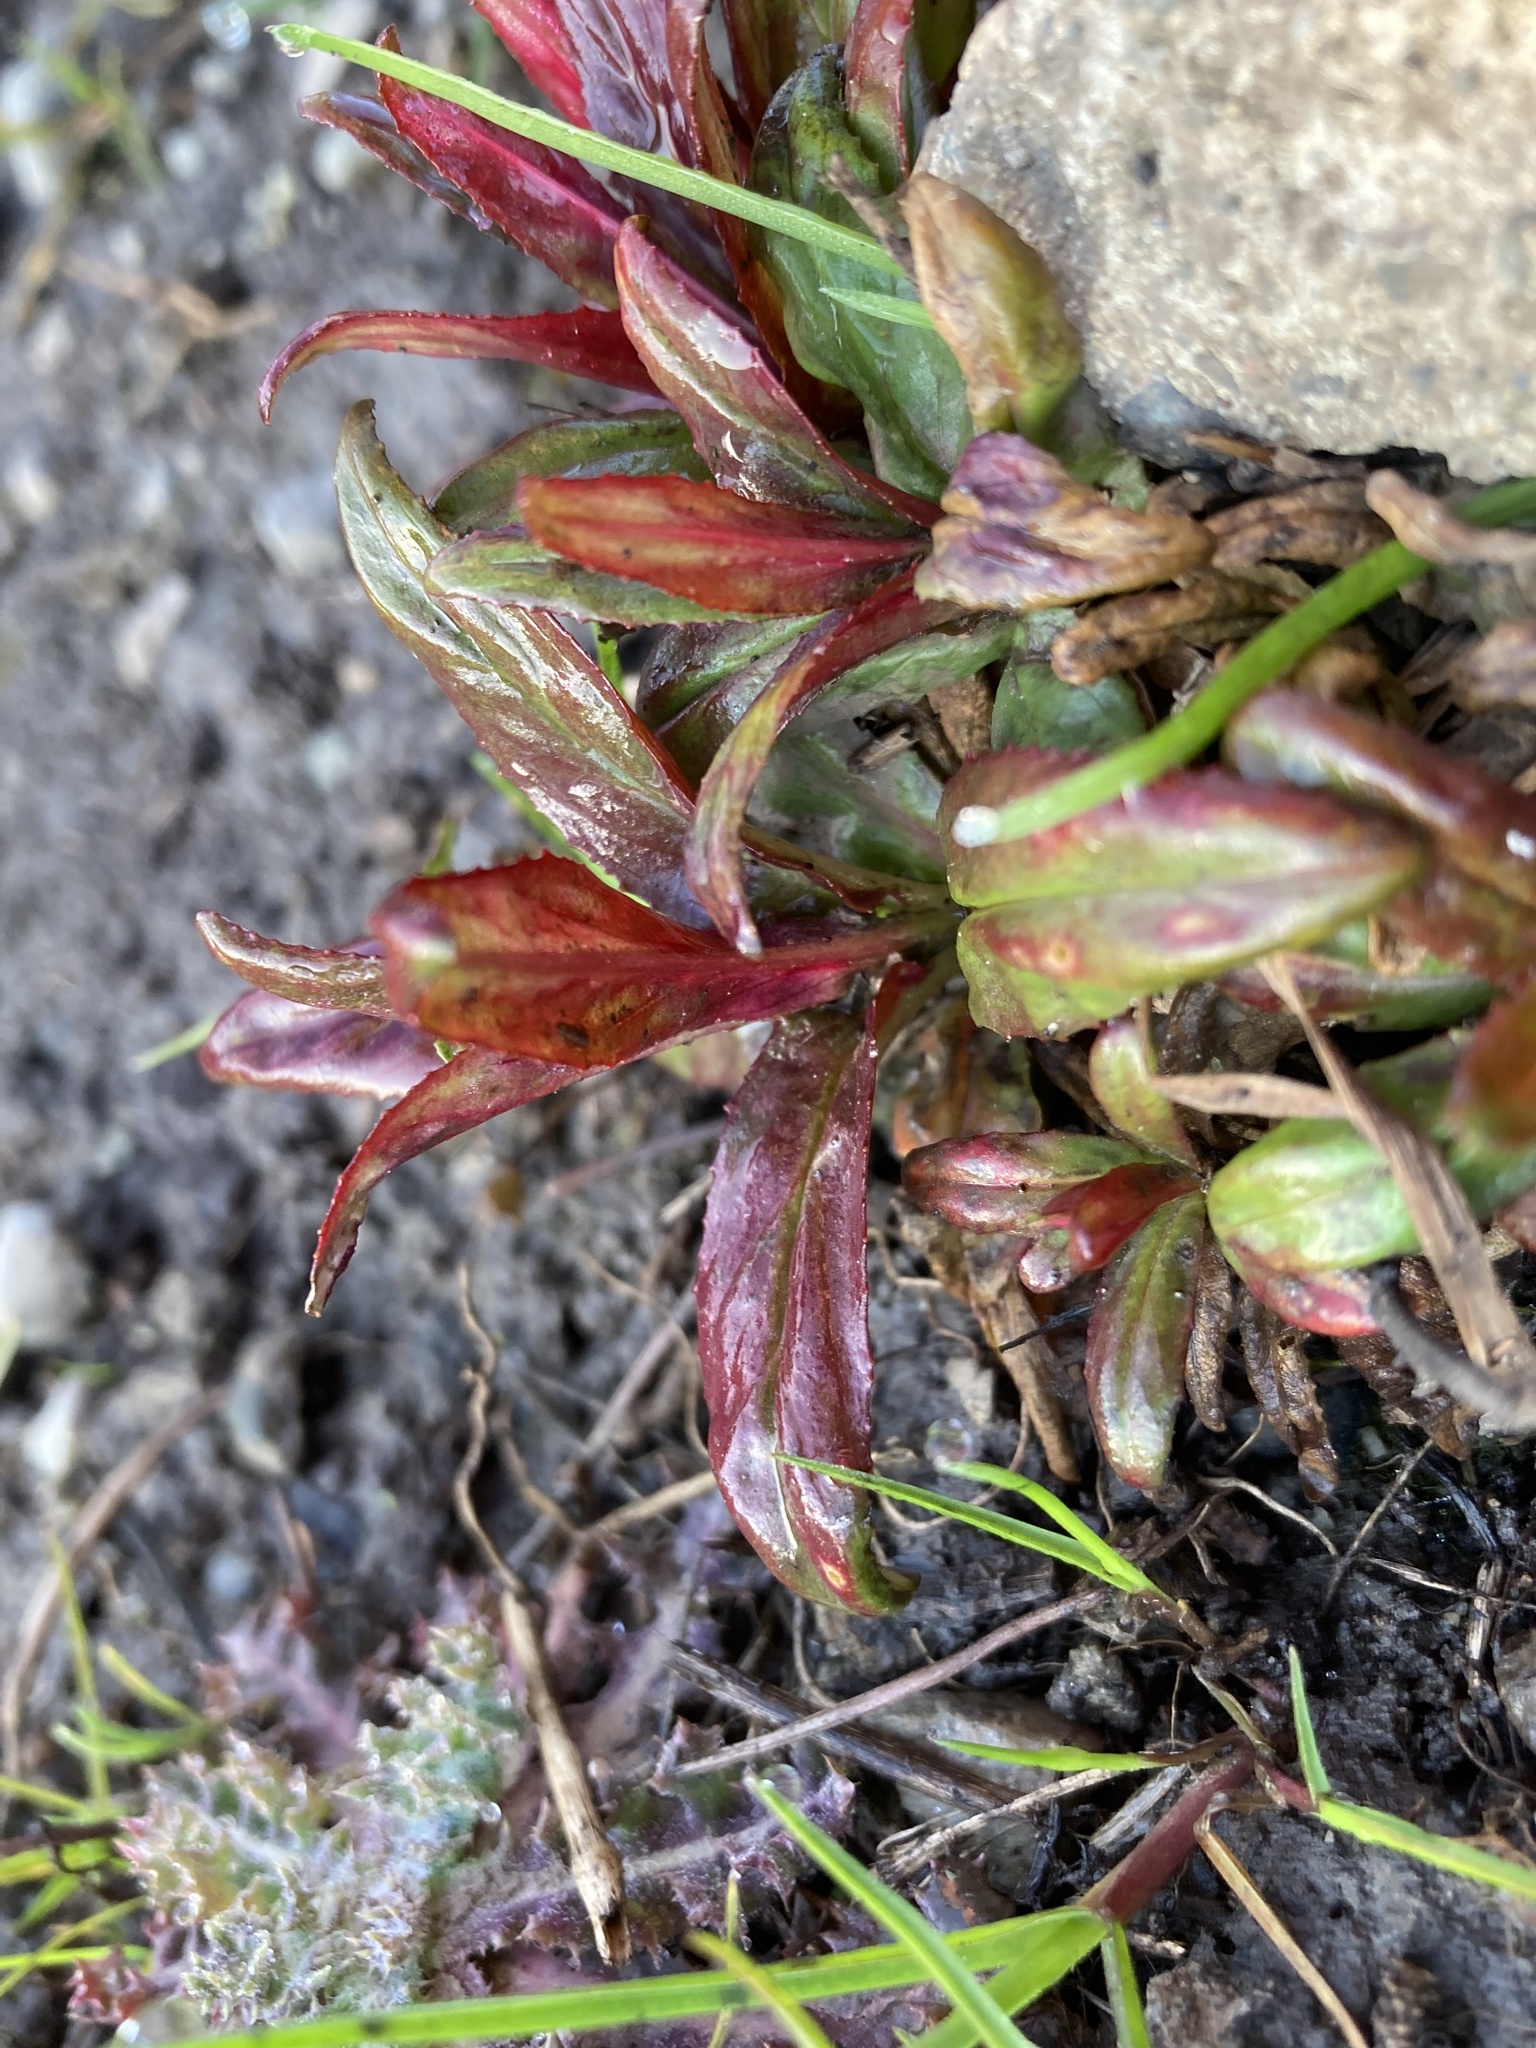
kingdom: Plantae
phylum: Tracheophyta
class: Magnoliopsida
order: Myrtales
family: Onagraceae
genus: Epilobium
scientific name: Epilobium ciliatum
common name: American willowherb
